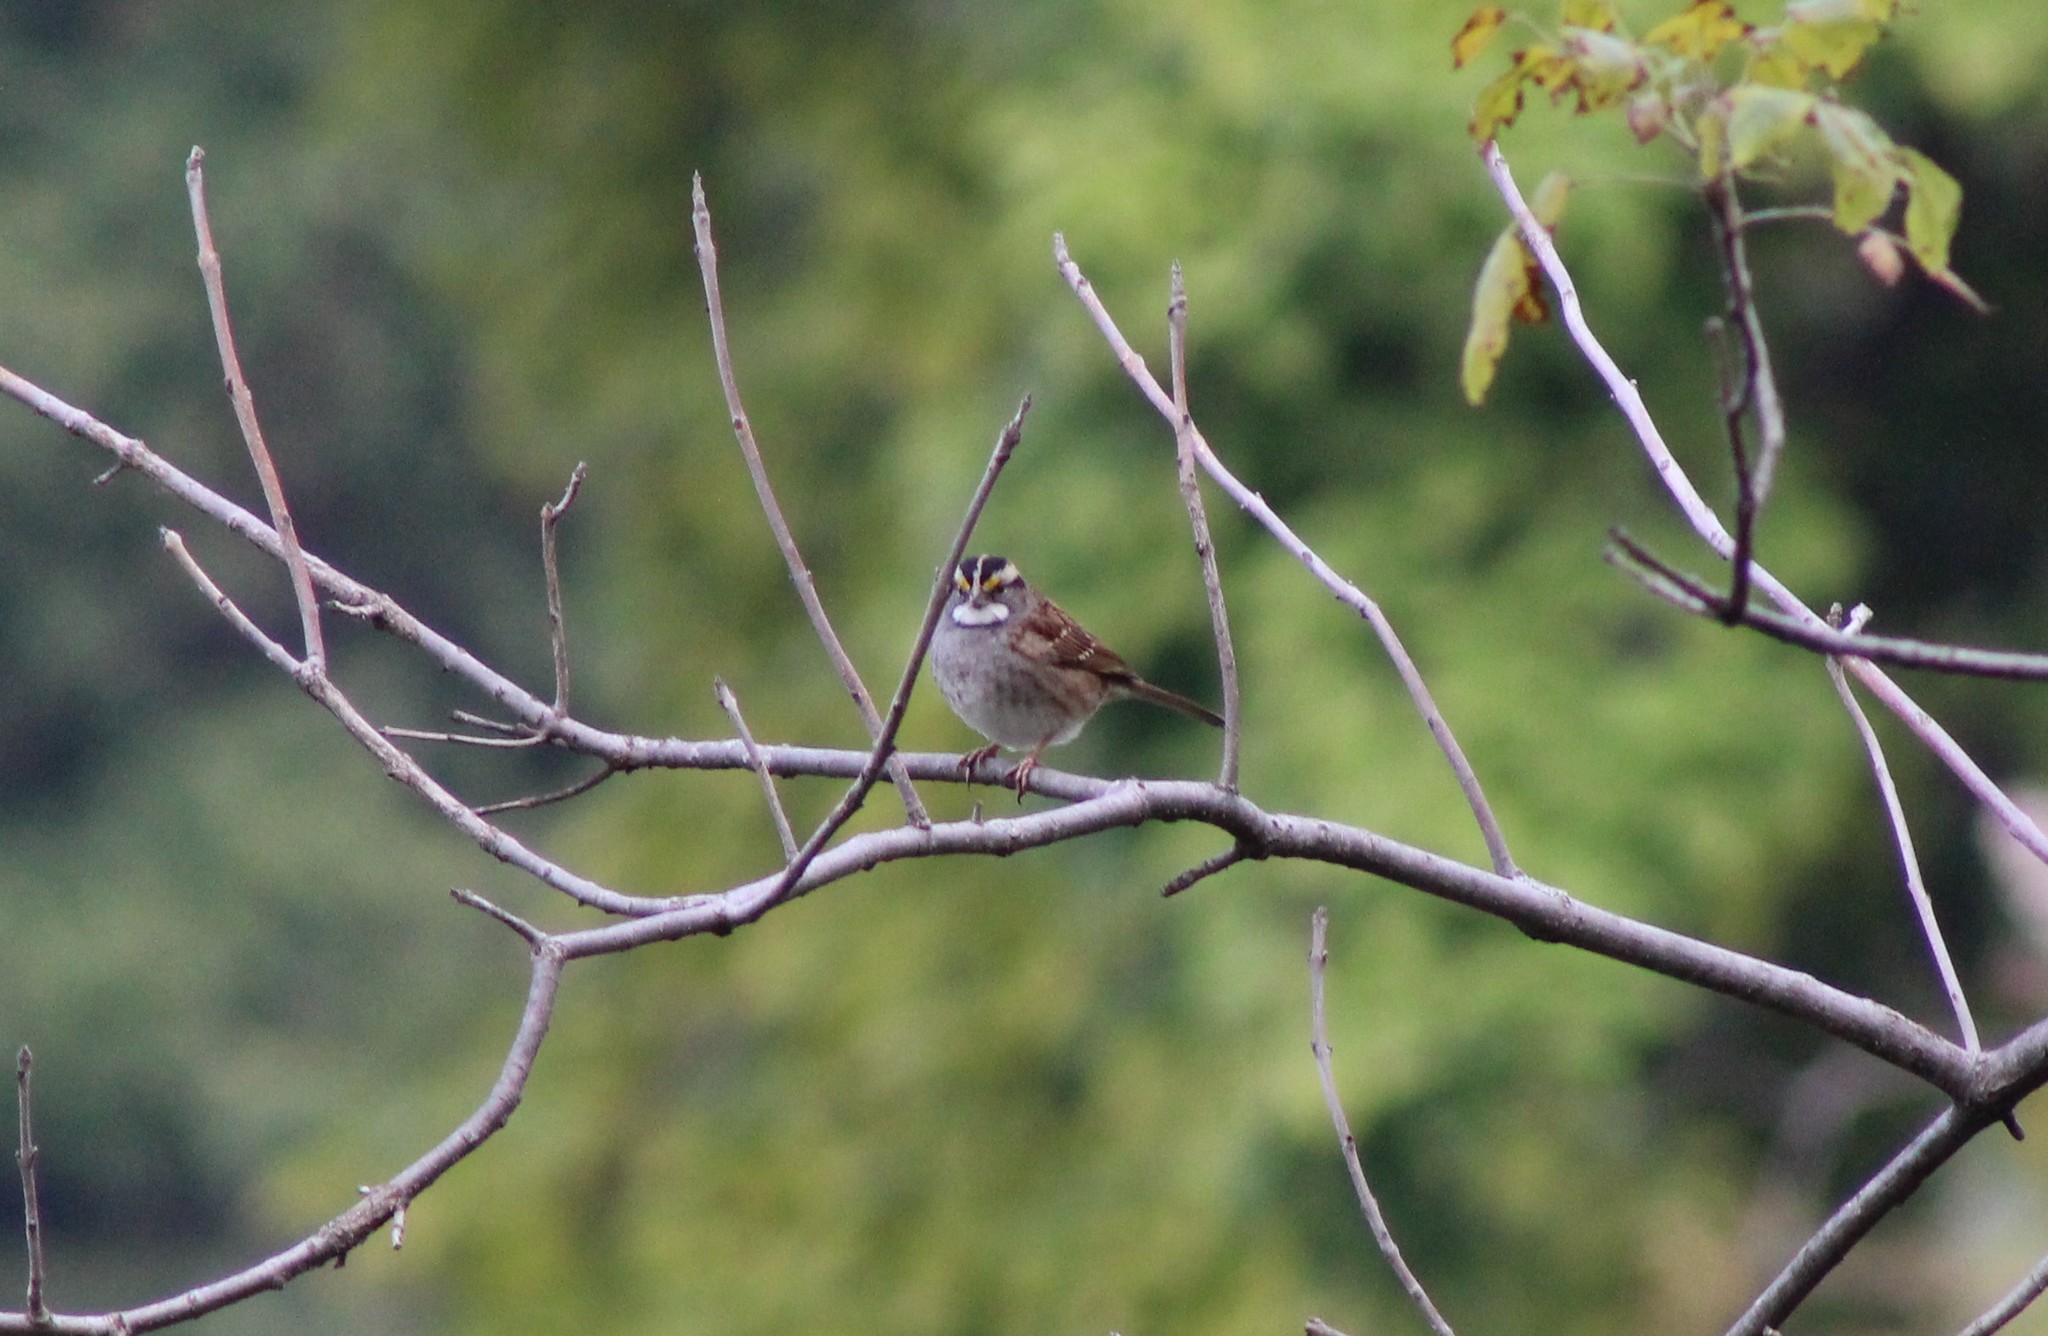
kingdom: Animalia
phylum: Chordata
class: Aves
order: Passeriformes
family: Passerellidae
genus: Zonotrichia
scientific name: Zonotrichia albicollis
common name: White-throated sparrow
